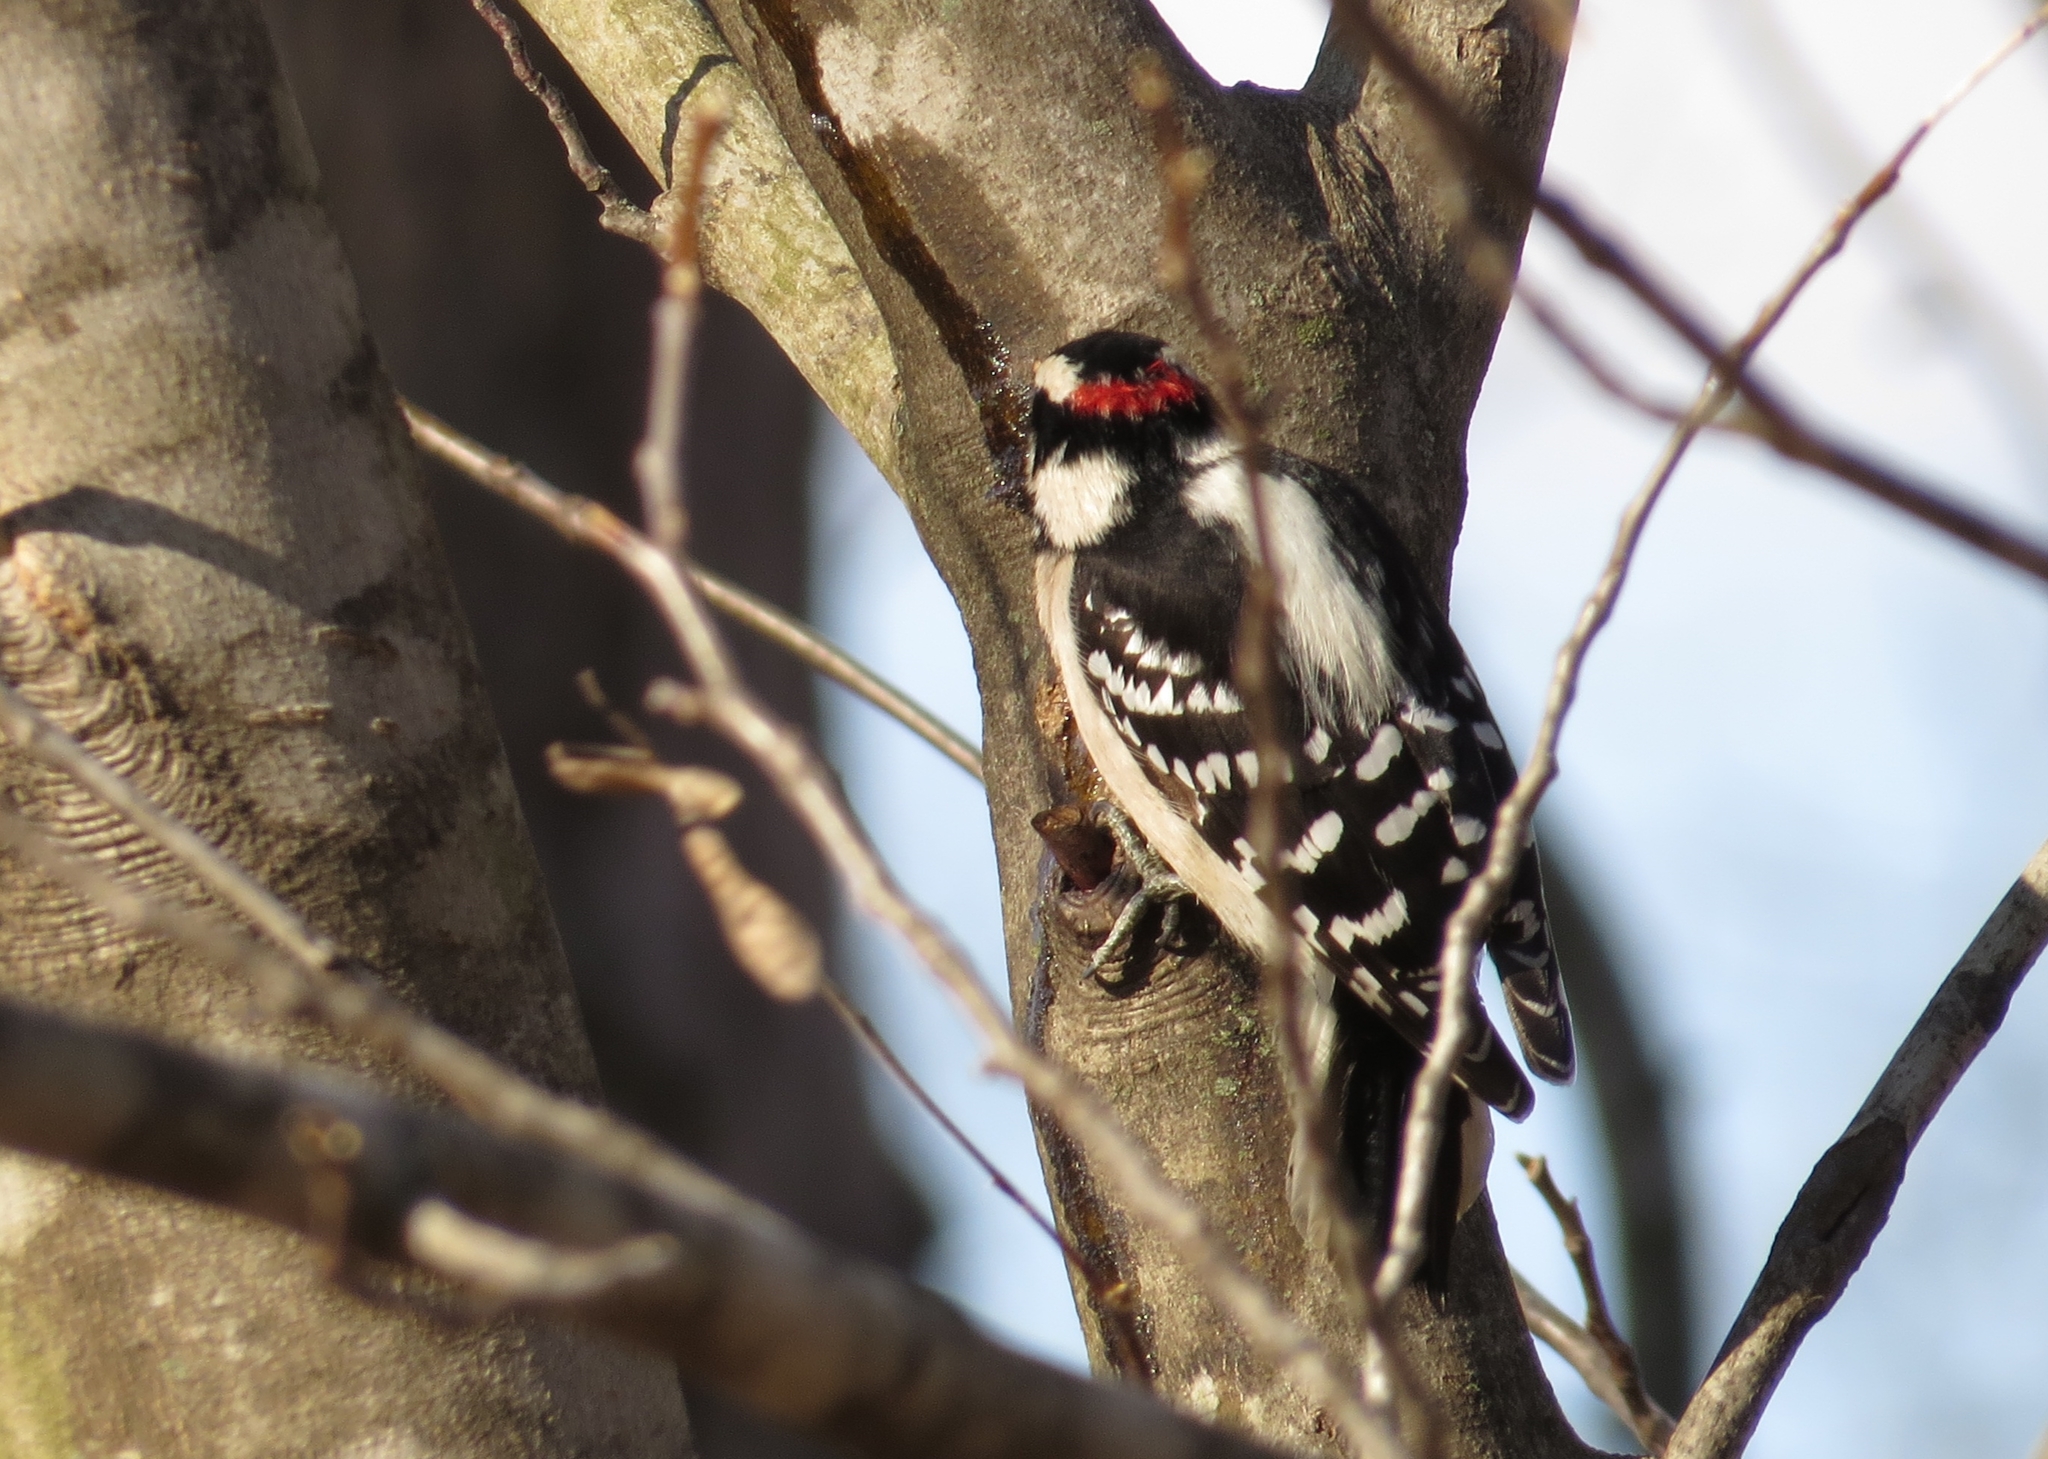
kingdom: Animalia
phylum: Chordata
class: Aves
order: Piciformes
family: Picidae
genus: Dryobates
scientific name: Dryobates pubescens
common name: Downy woodpecker
